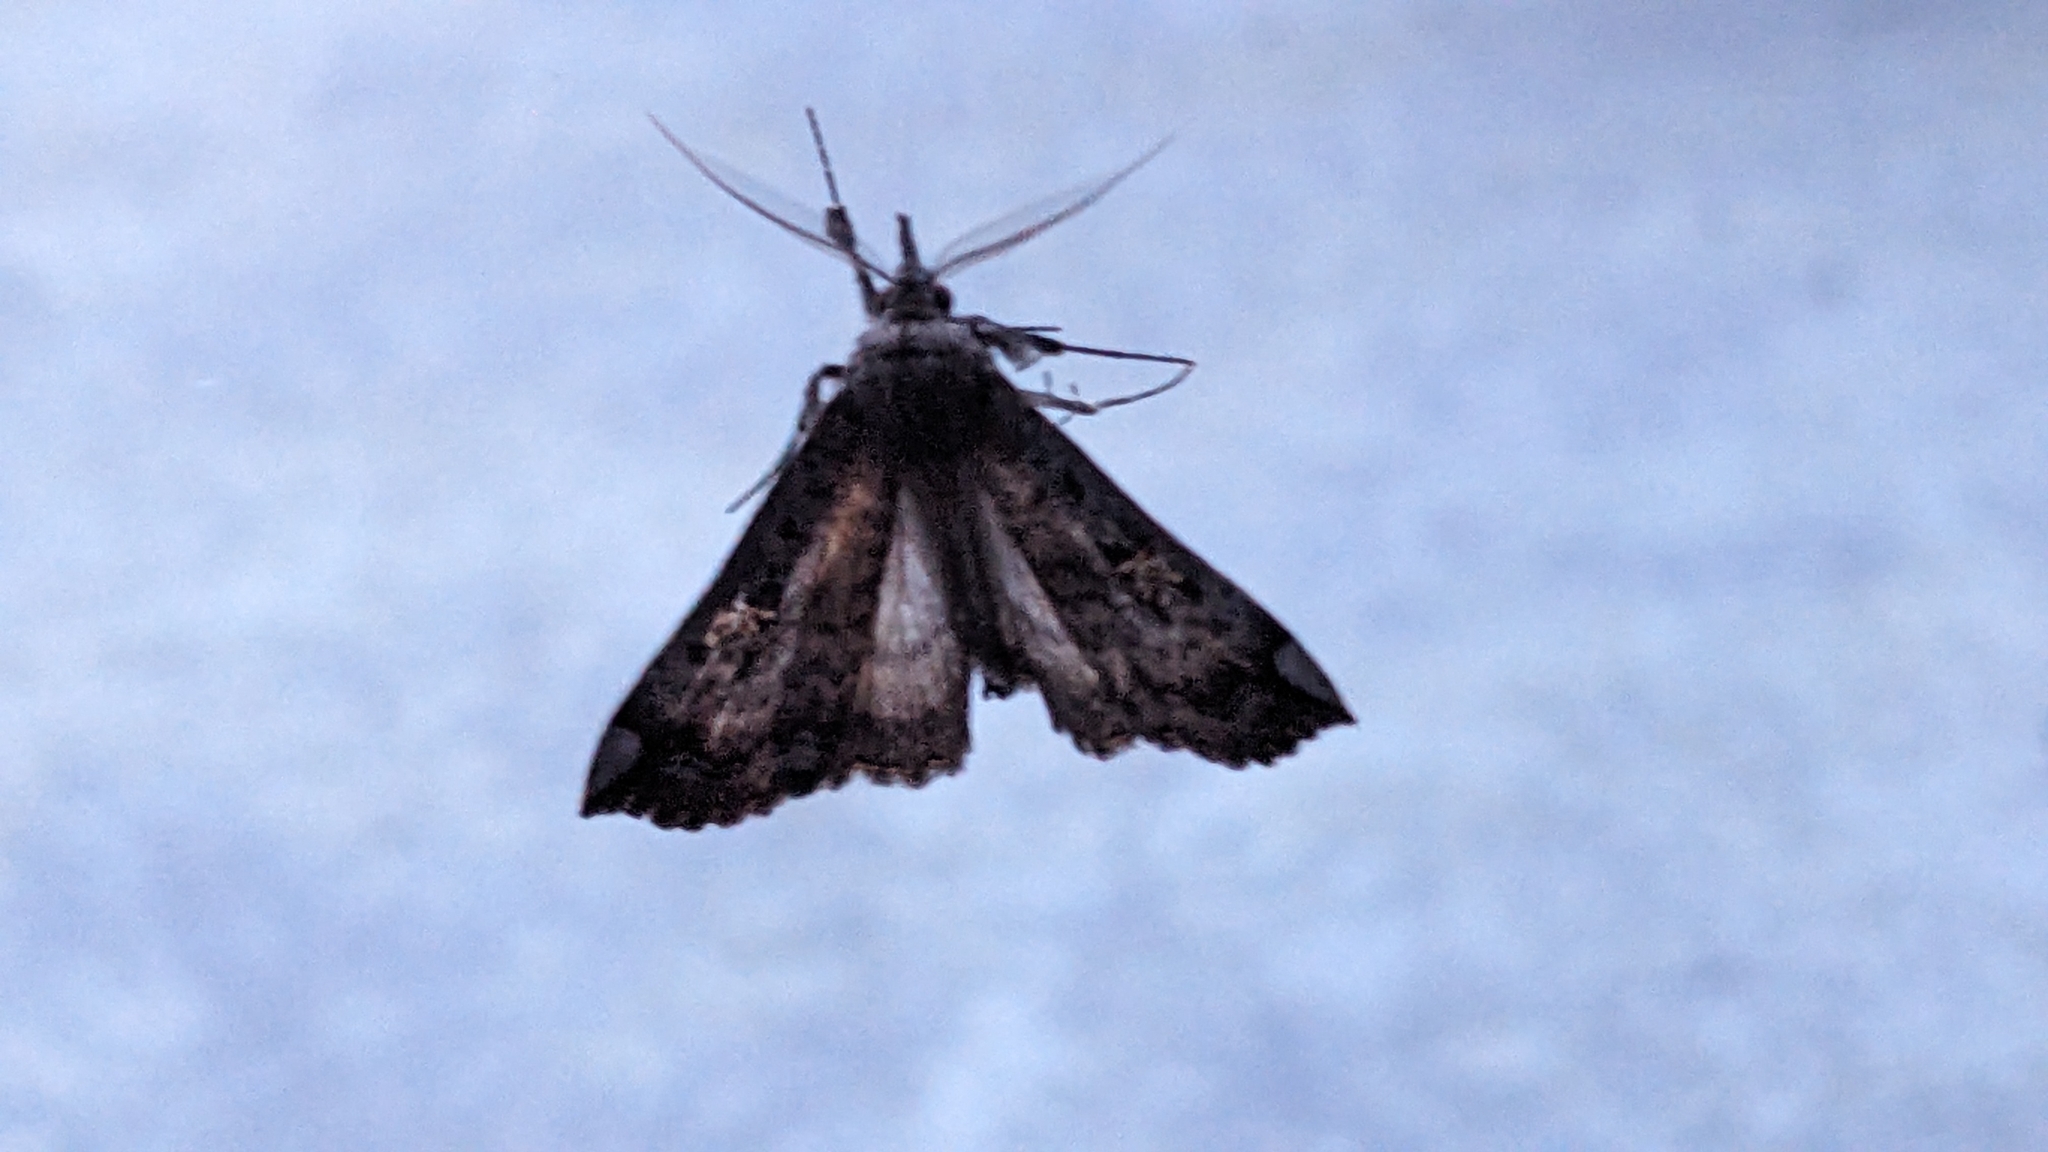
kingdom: Animalia
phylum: Arthropoda
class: Insecta
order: Lepidoptera
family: Erebidae
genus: Rhapsa
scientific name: Rhapsa scotosialis
